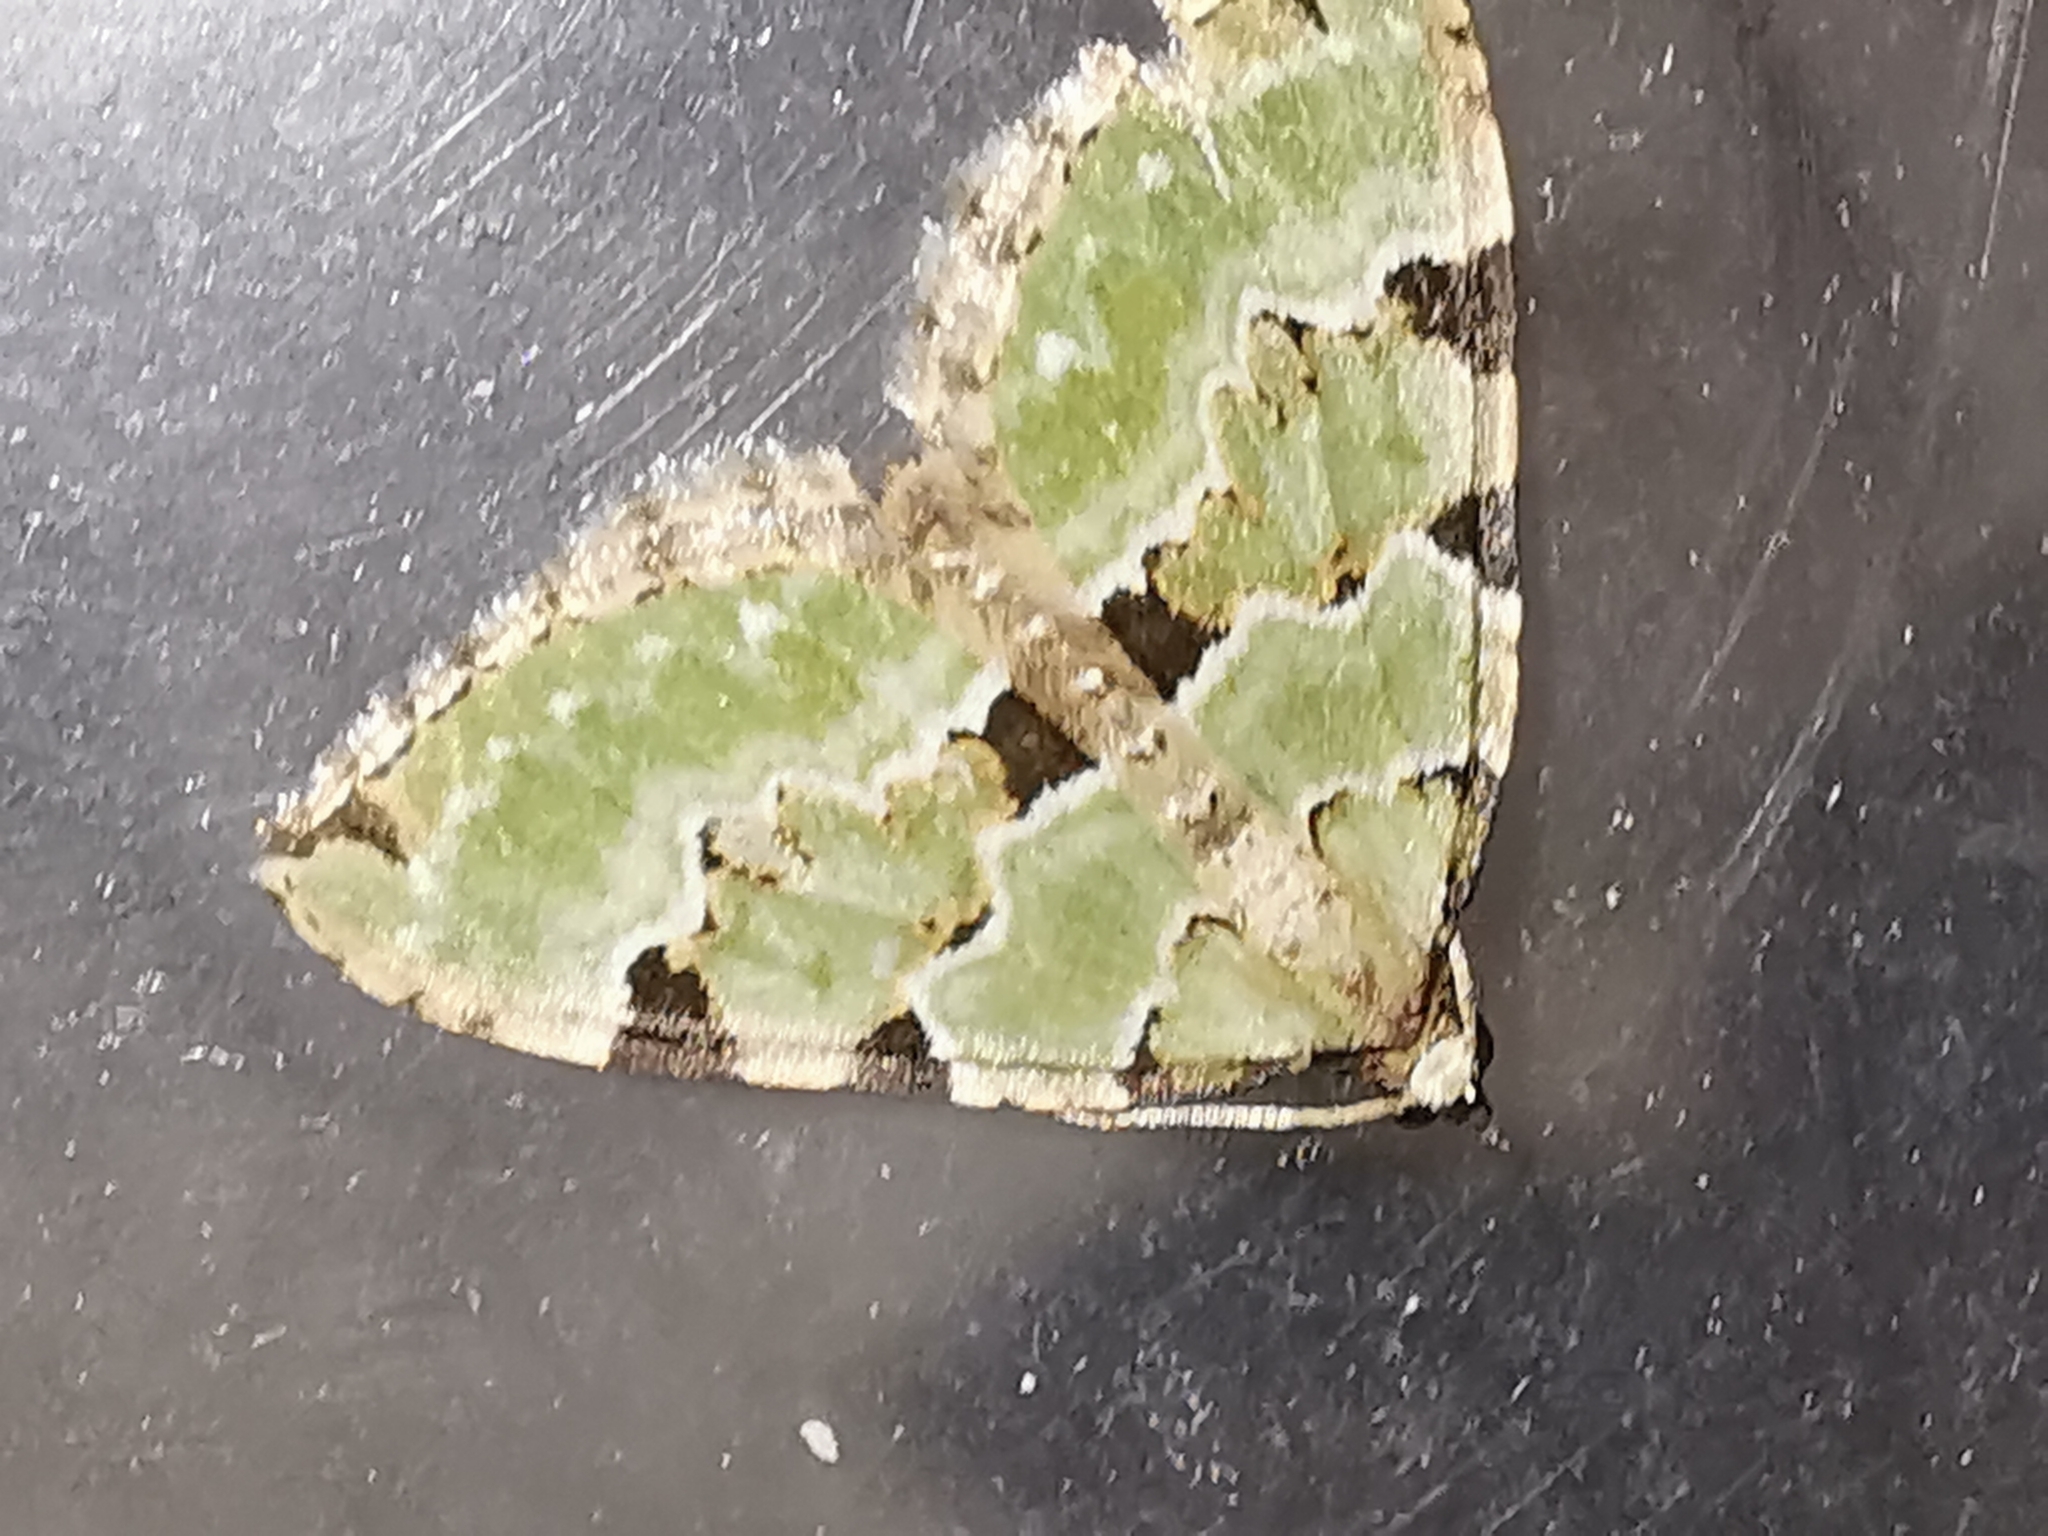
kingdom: Animalia
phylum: Arthropoda
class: Insecta
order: Lepidoptera
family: Geometridae
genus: Colostygia
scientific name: Colostygia pectinataria
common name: Green carpet
